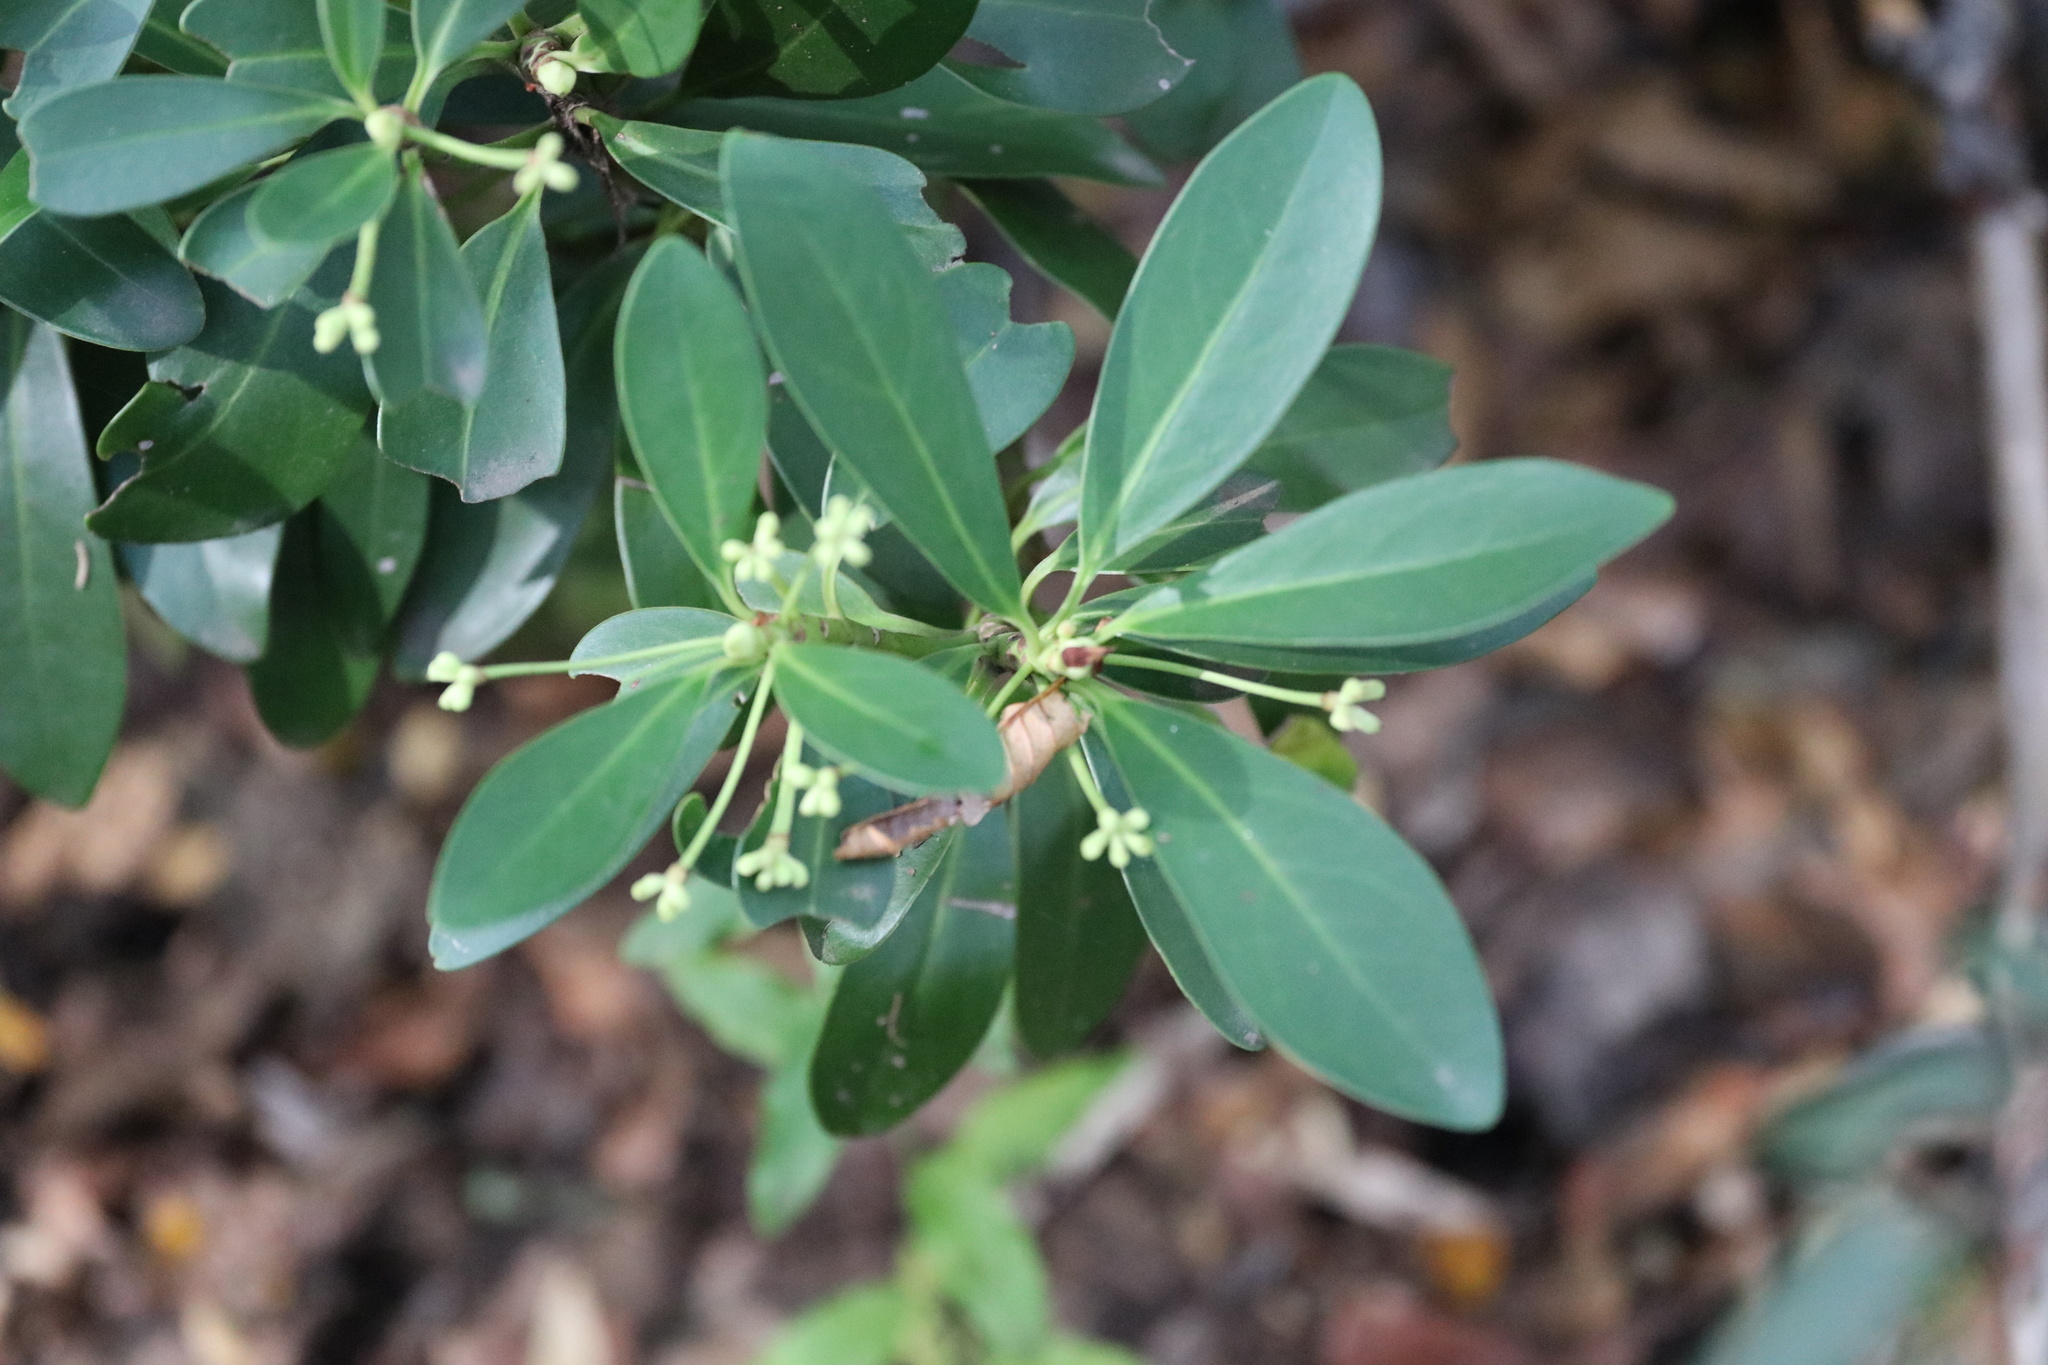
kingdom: Plantae
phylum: Tracheophyta
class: Magnoliopsida
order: Canellales
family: Winteraceae
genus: Drimys
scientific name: Drimys andina
